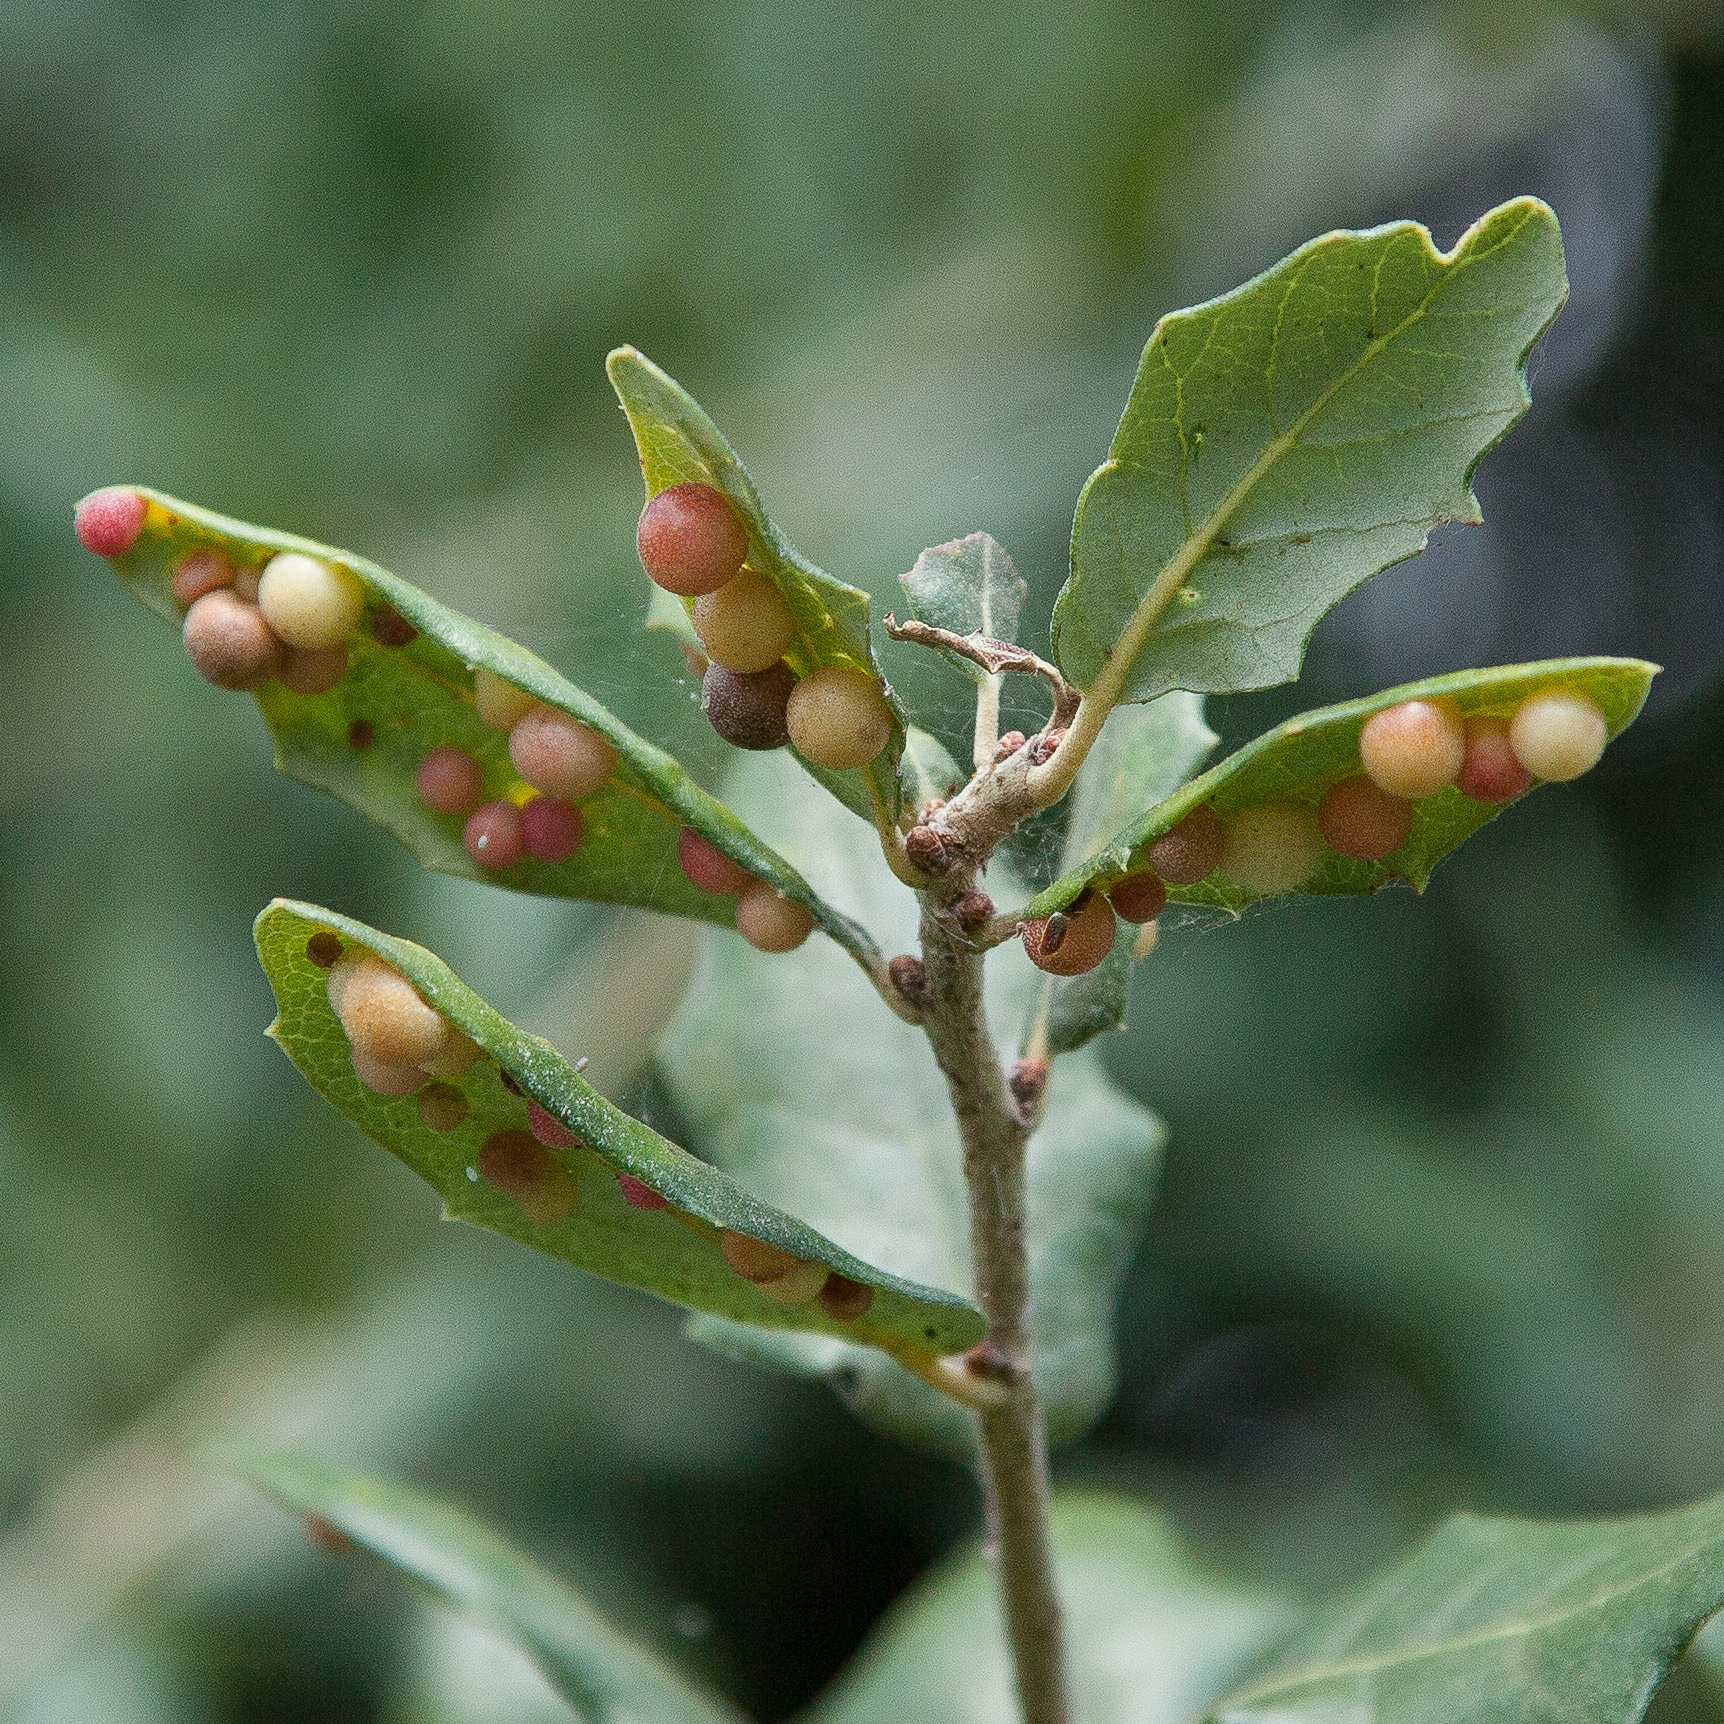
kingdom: Animalia
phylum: Arthropoda
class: Insecta
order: Hymenoptera
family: Cynipidae
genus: Belonocnema
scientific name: Belonocnema kinseyi
